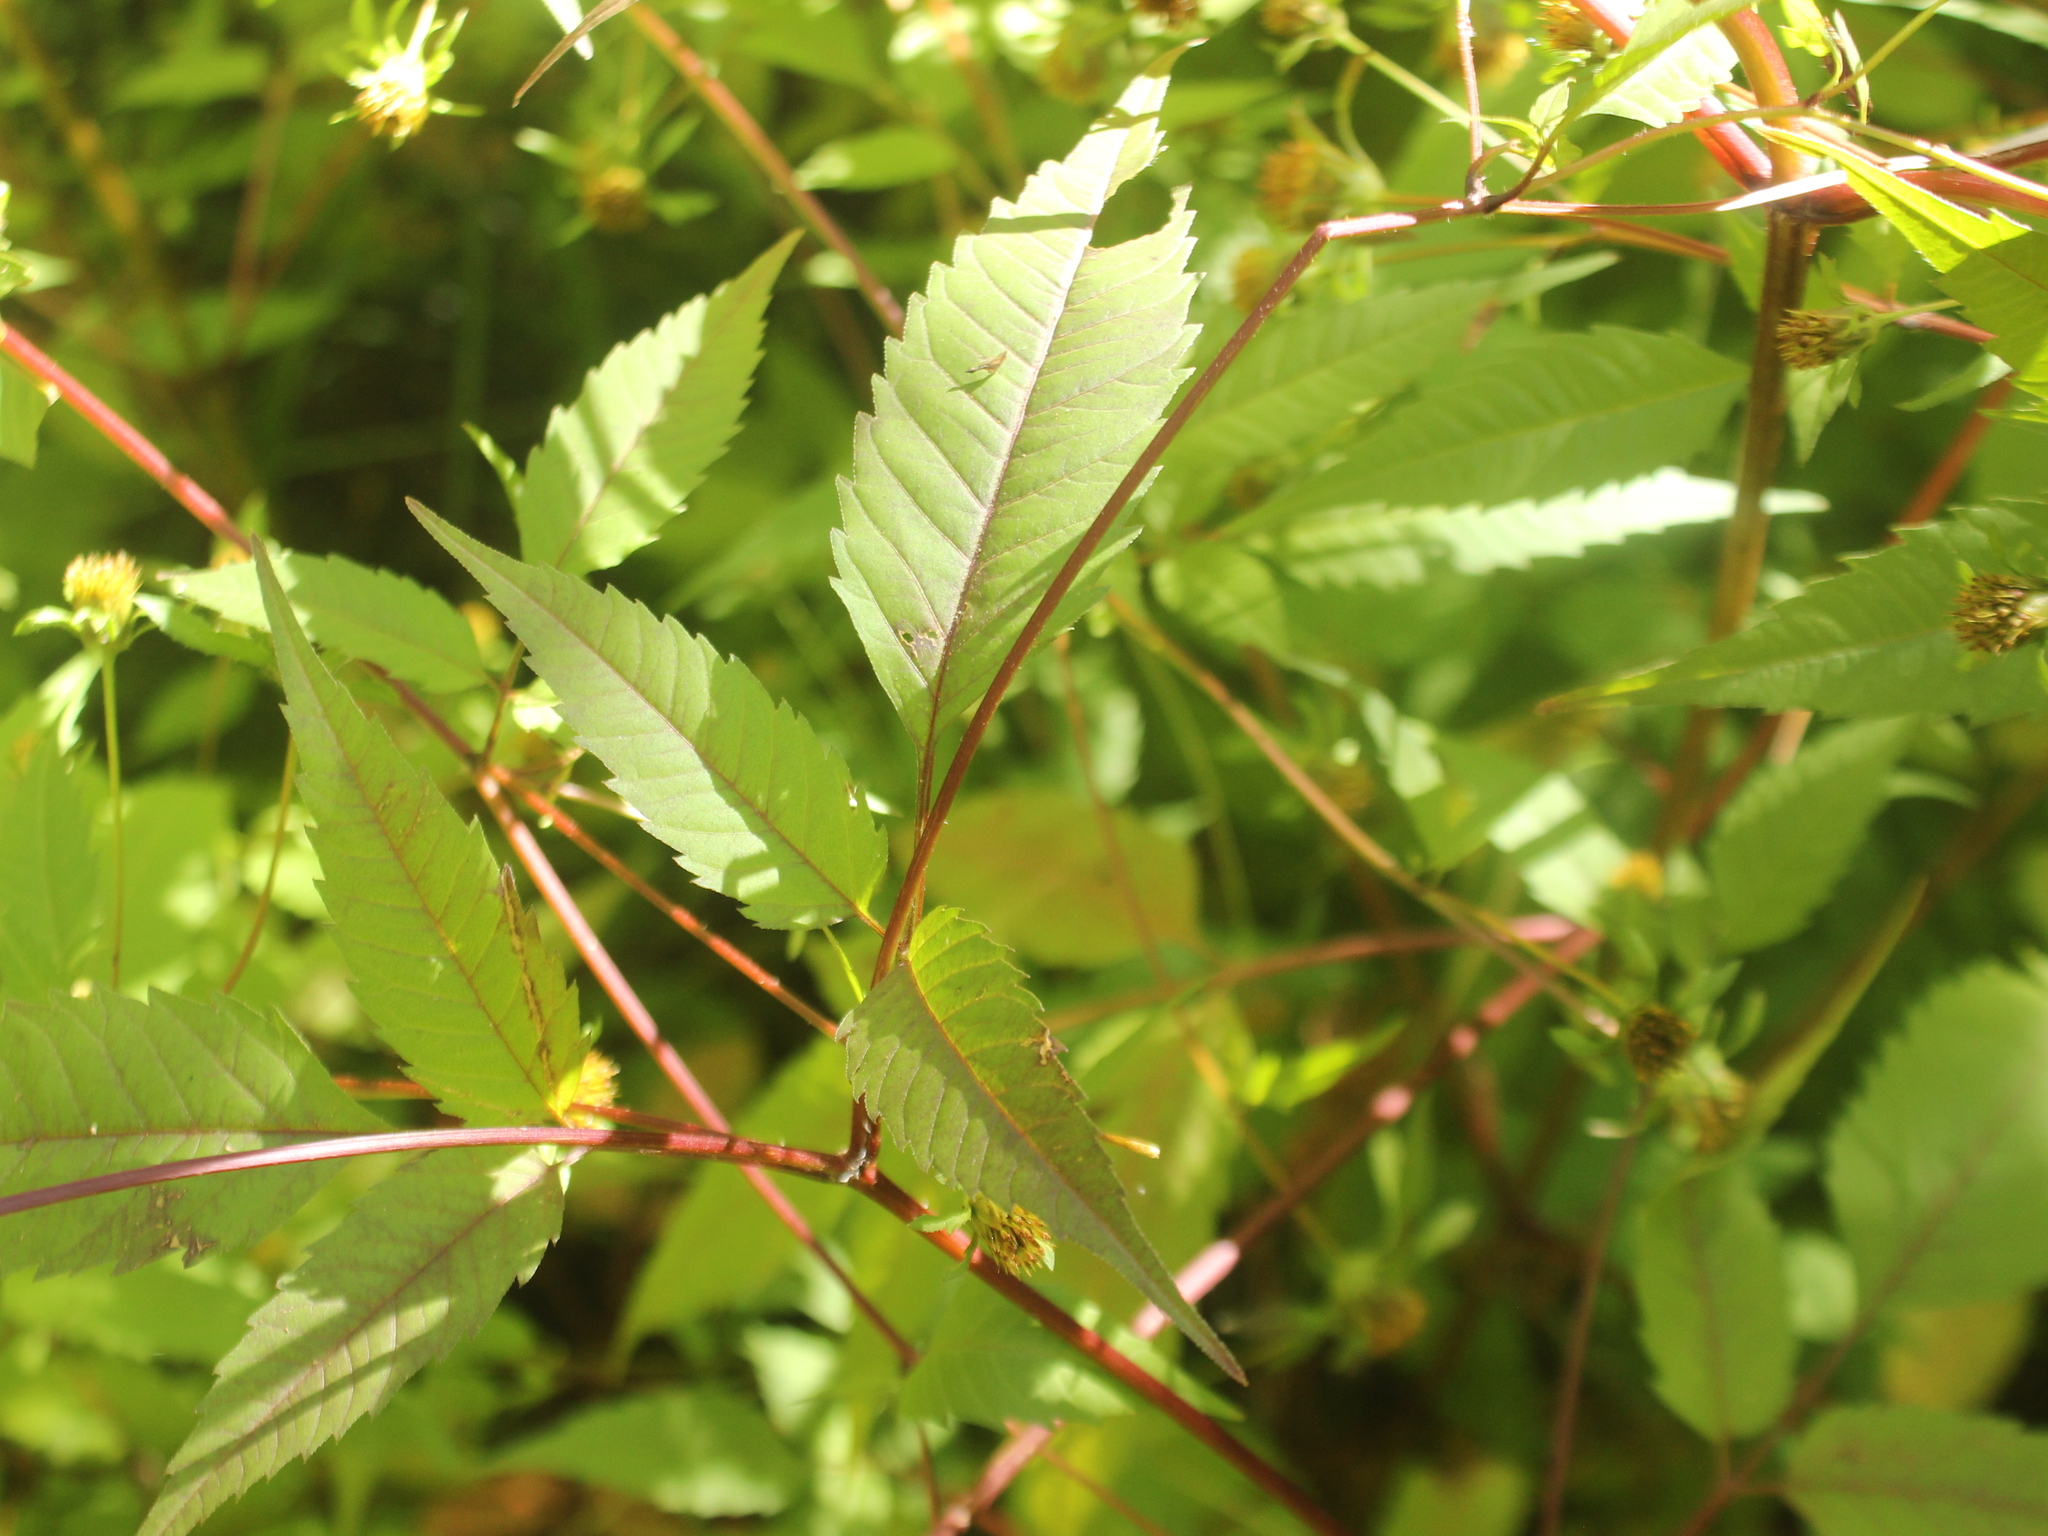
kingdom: Plantae
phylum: Tracheophyta
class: Magnoliopsida
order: Asterales
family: Asteraceae
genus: Bidens
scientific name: Bidens frondosa
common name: Beggarticks
